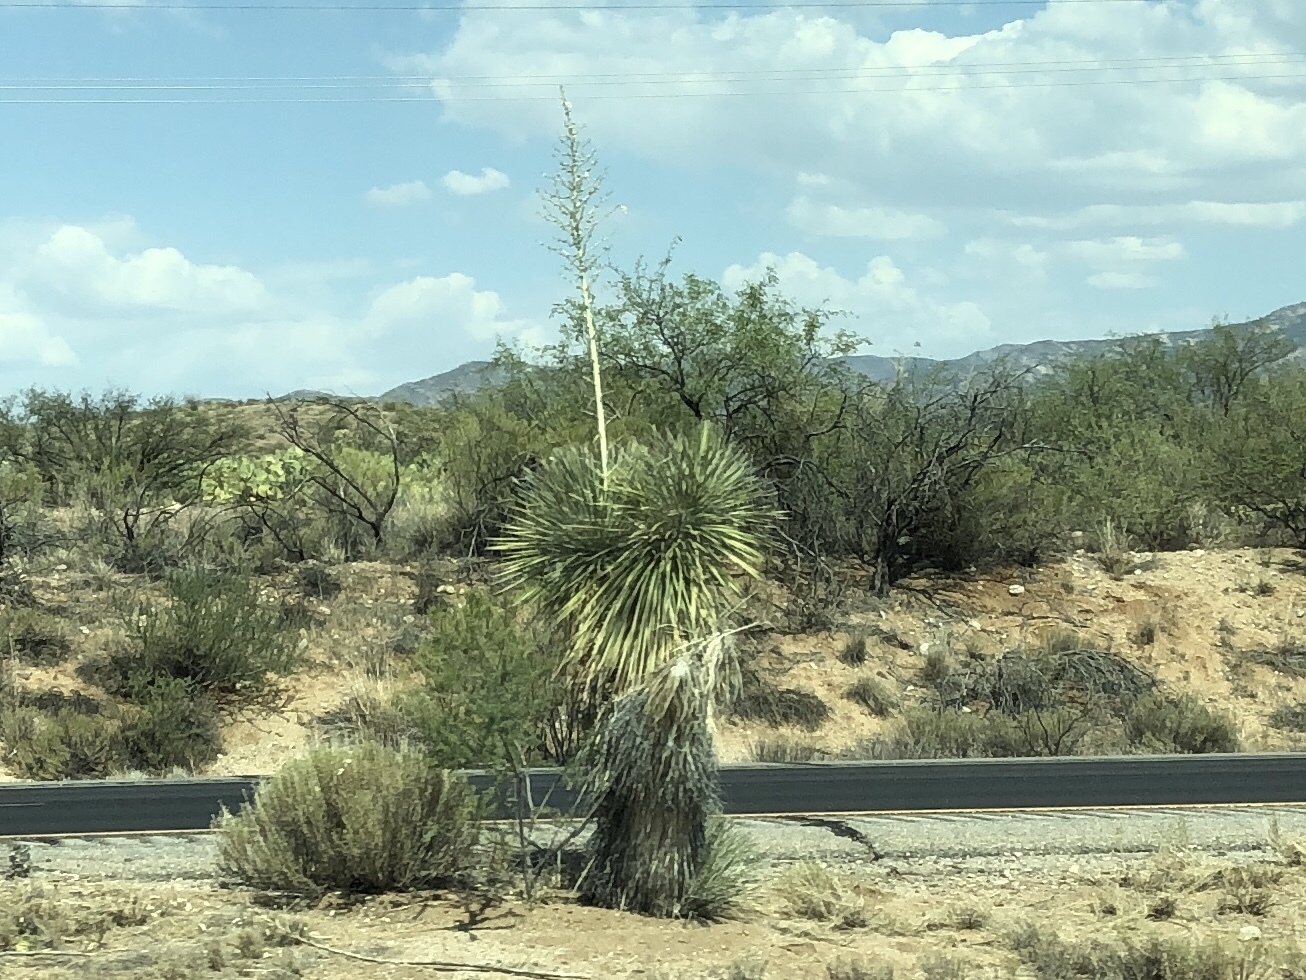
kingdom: Plantae
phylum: Tracheophyta
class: Liliopsida
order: Asparagales
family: Asparagaceae
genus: Yucca
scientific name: Yucca elata
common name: Palmella
